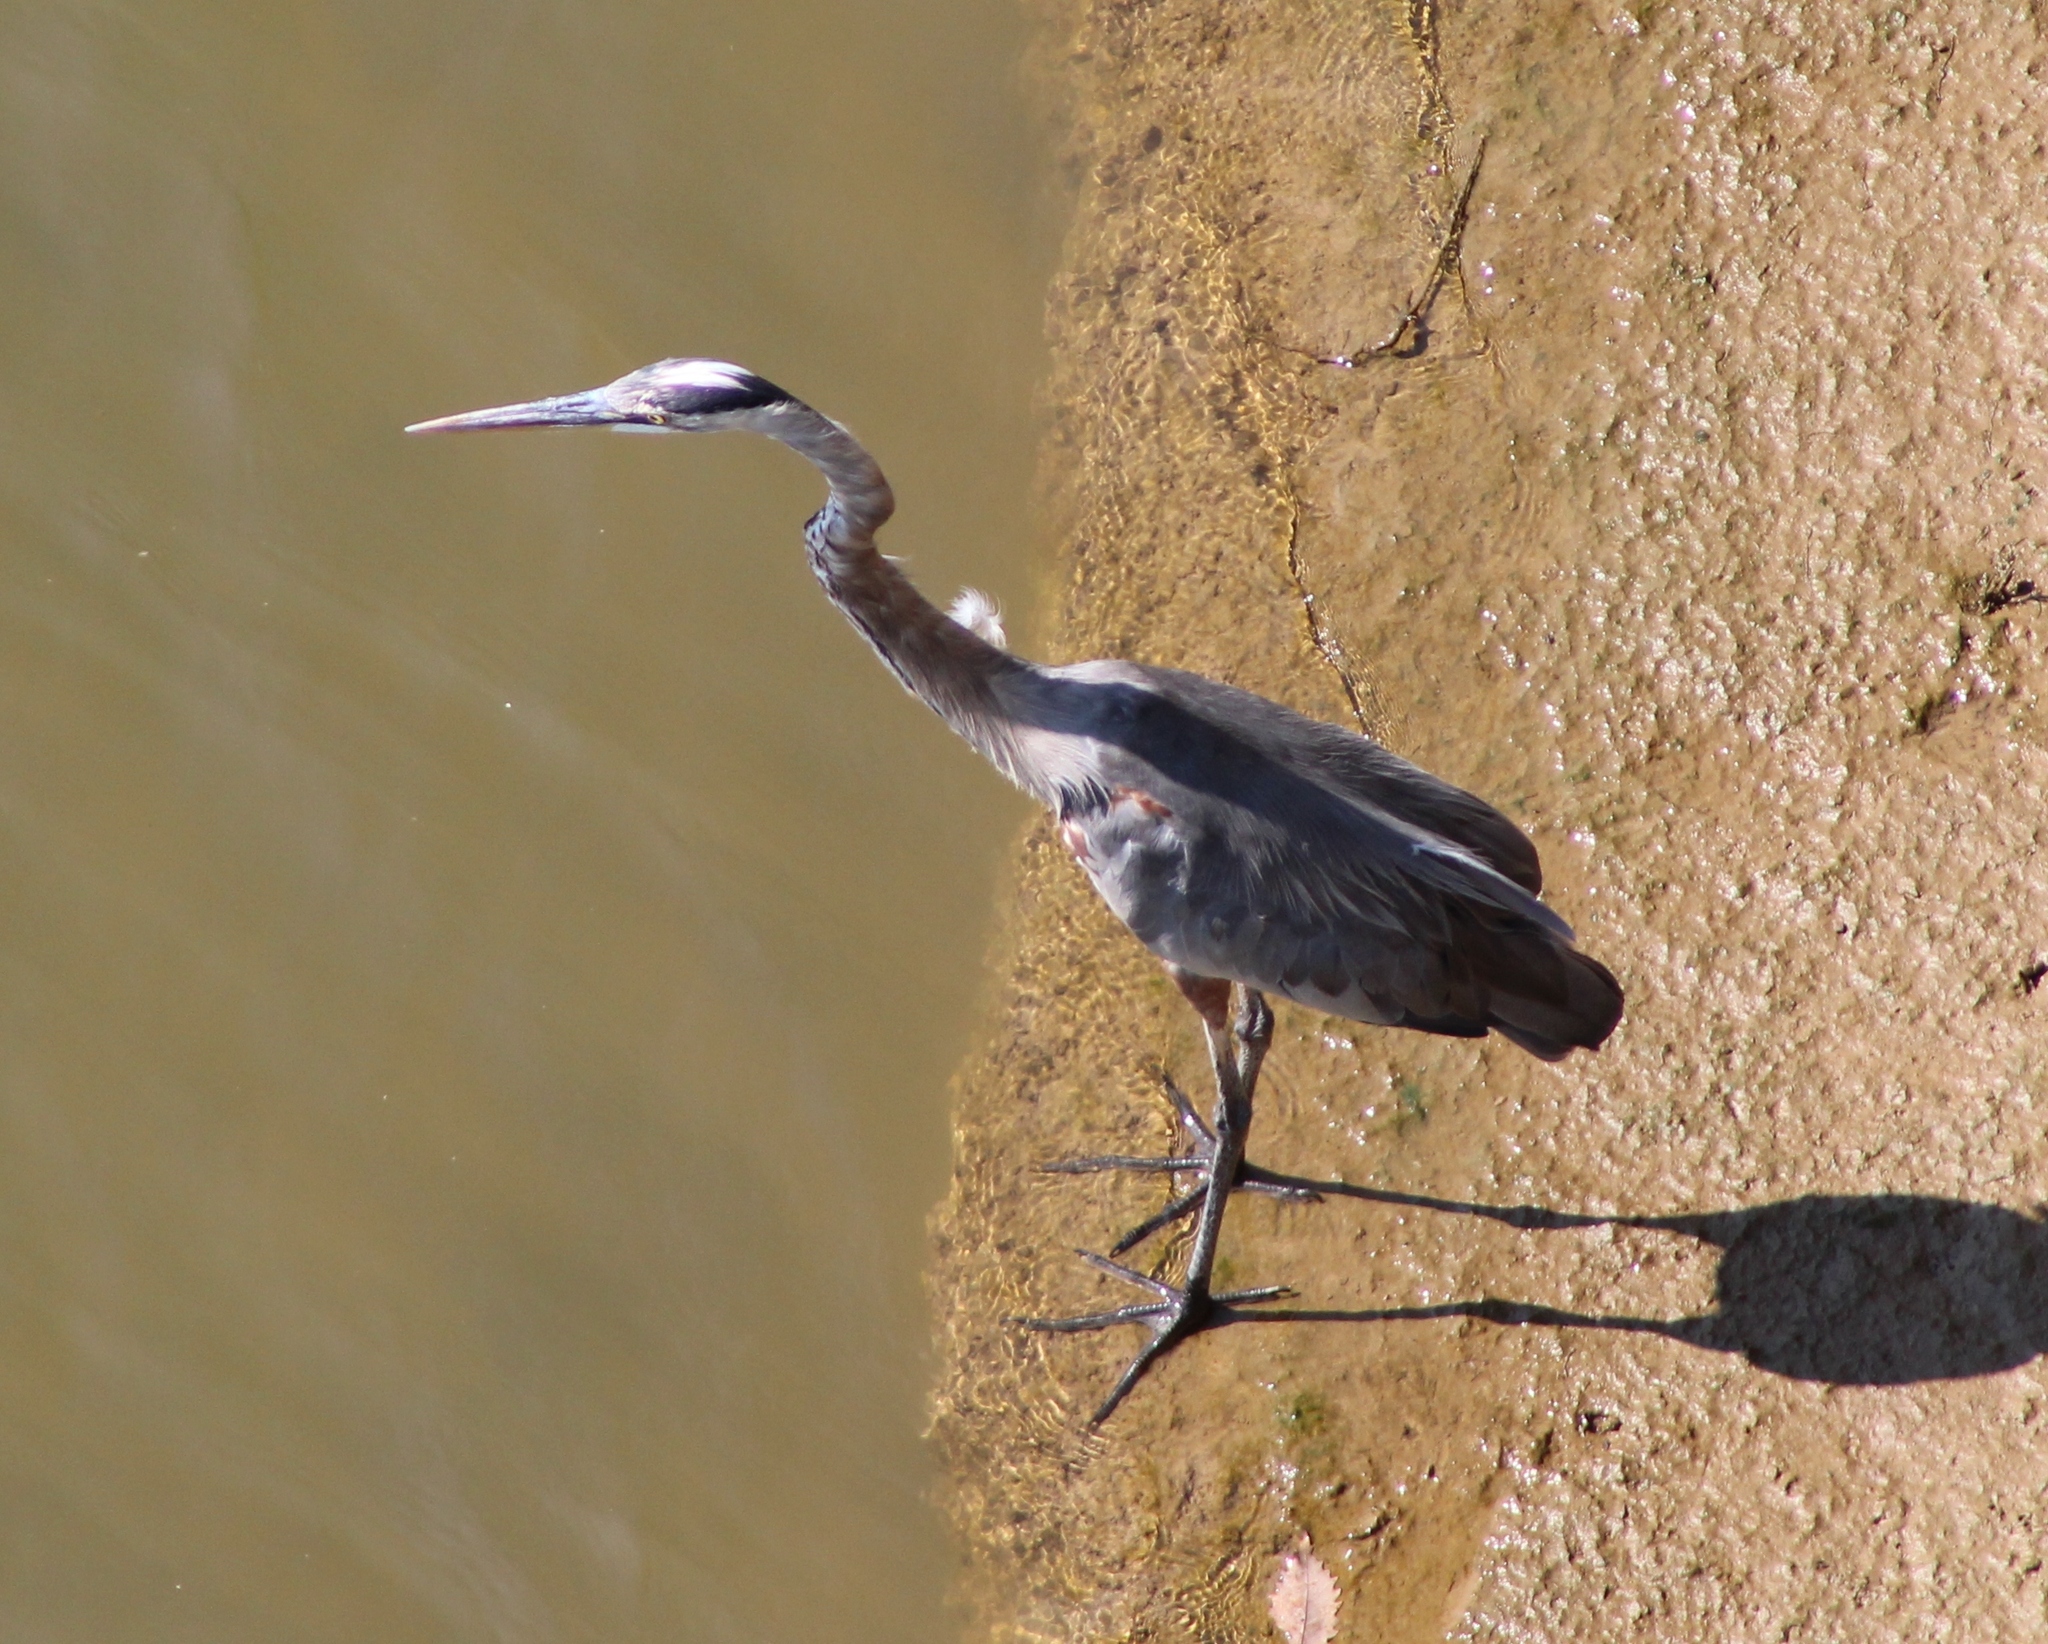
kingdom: Animalia
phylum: Chordata
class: Aves
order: Pelecaniformes
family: Ardeidae
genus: Ardea
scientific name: Ardea herodias
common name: Great blue heron
